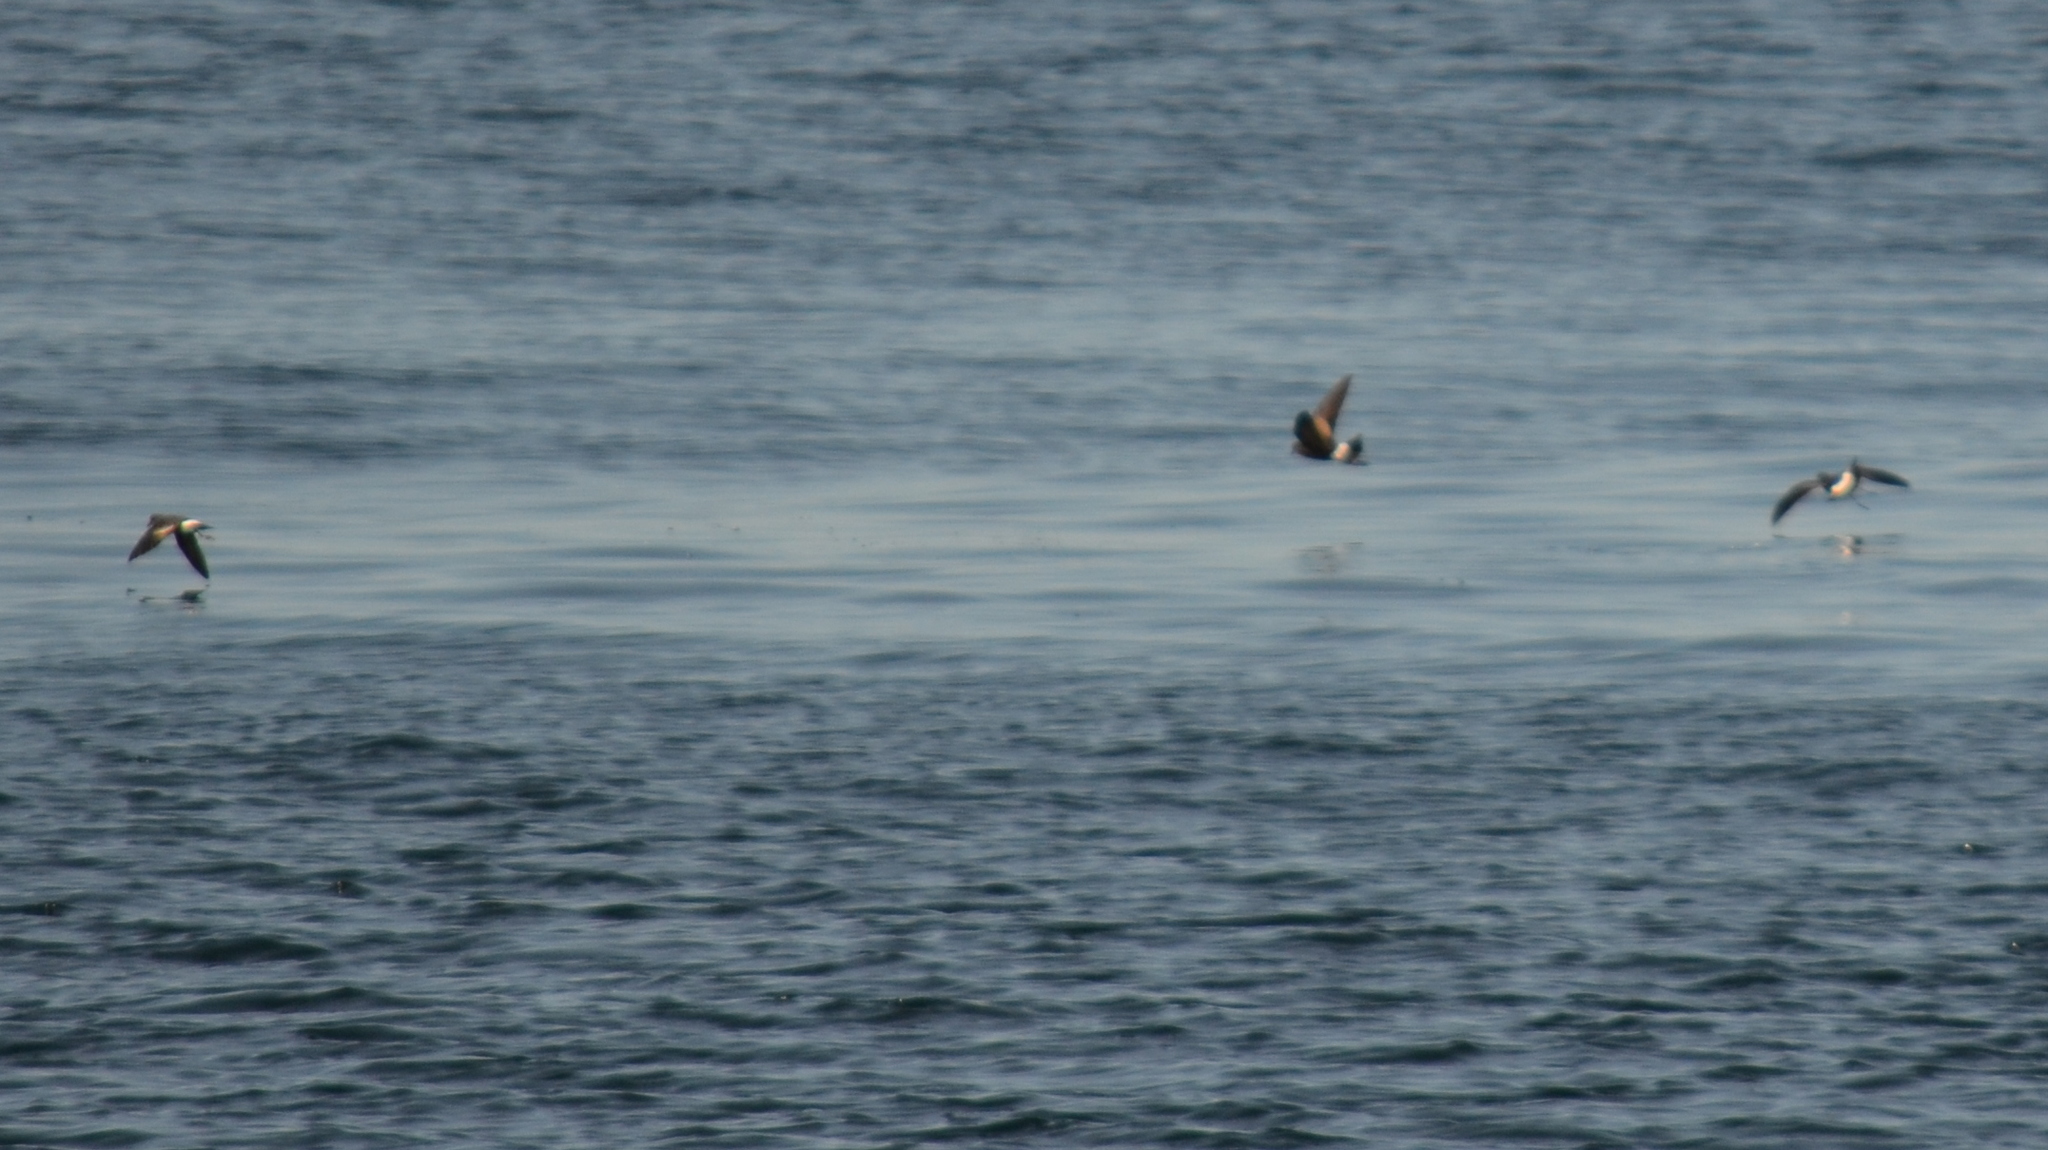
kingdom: Animalia
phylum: Chordata
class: Aves
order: Procellariiformes
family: Hydrobatidae
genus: Oceanites
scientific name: Oceanites oceanicus
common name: Wilson's storm petrel
